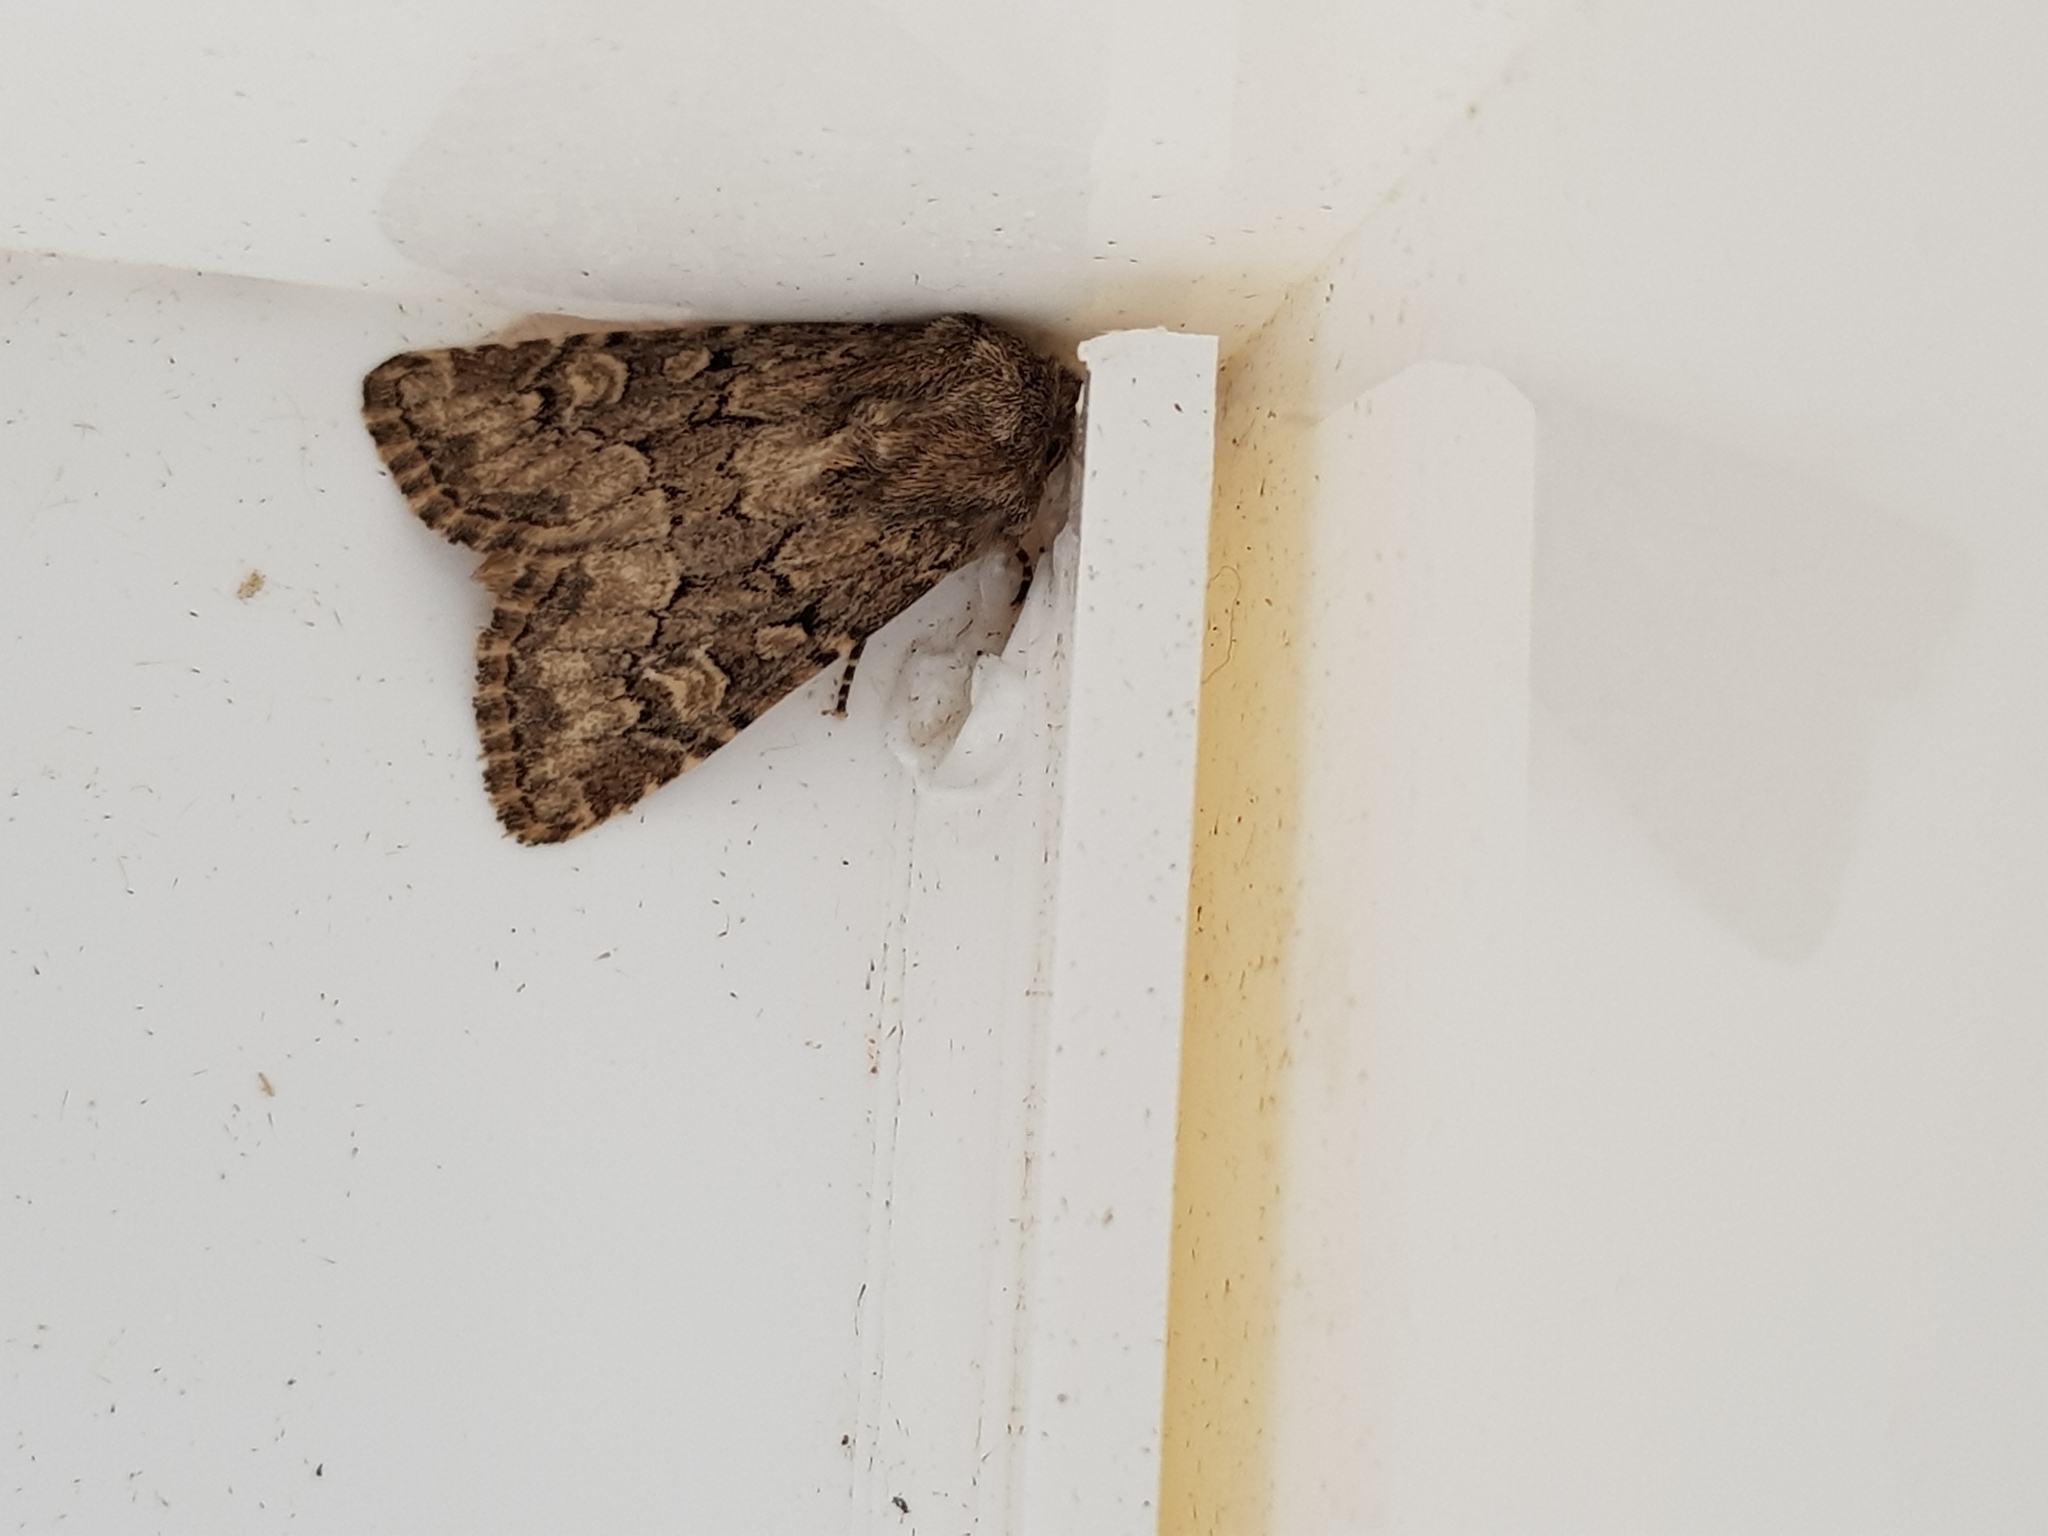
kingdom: Animalia
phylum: Arthropoda
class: Insecta
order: Lepidoptera
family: Noctuidae
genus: Luperina
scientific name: Luperina testacea
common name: Flounced rustic
